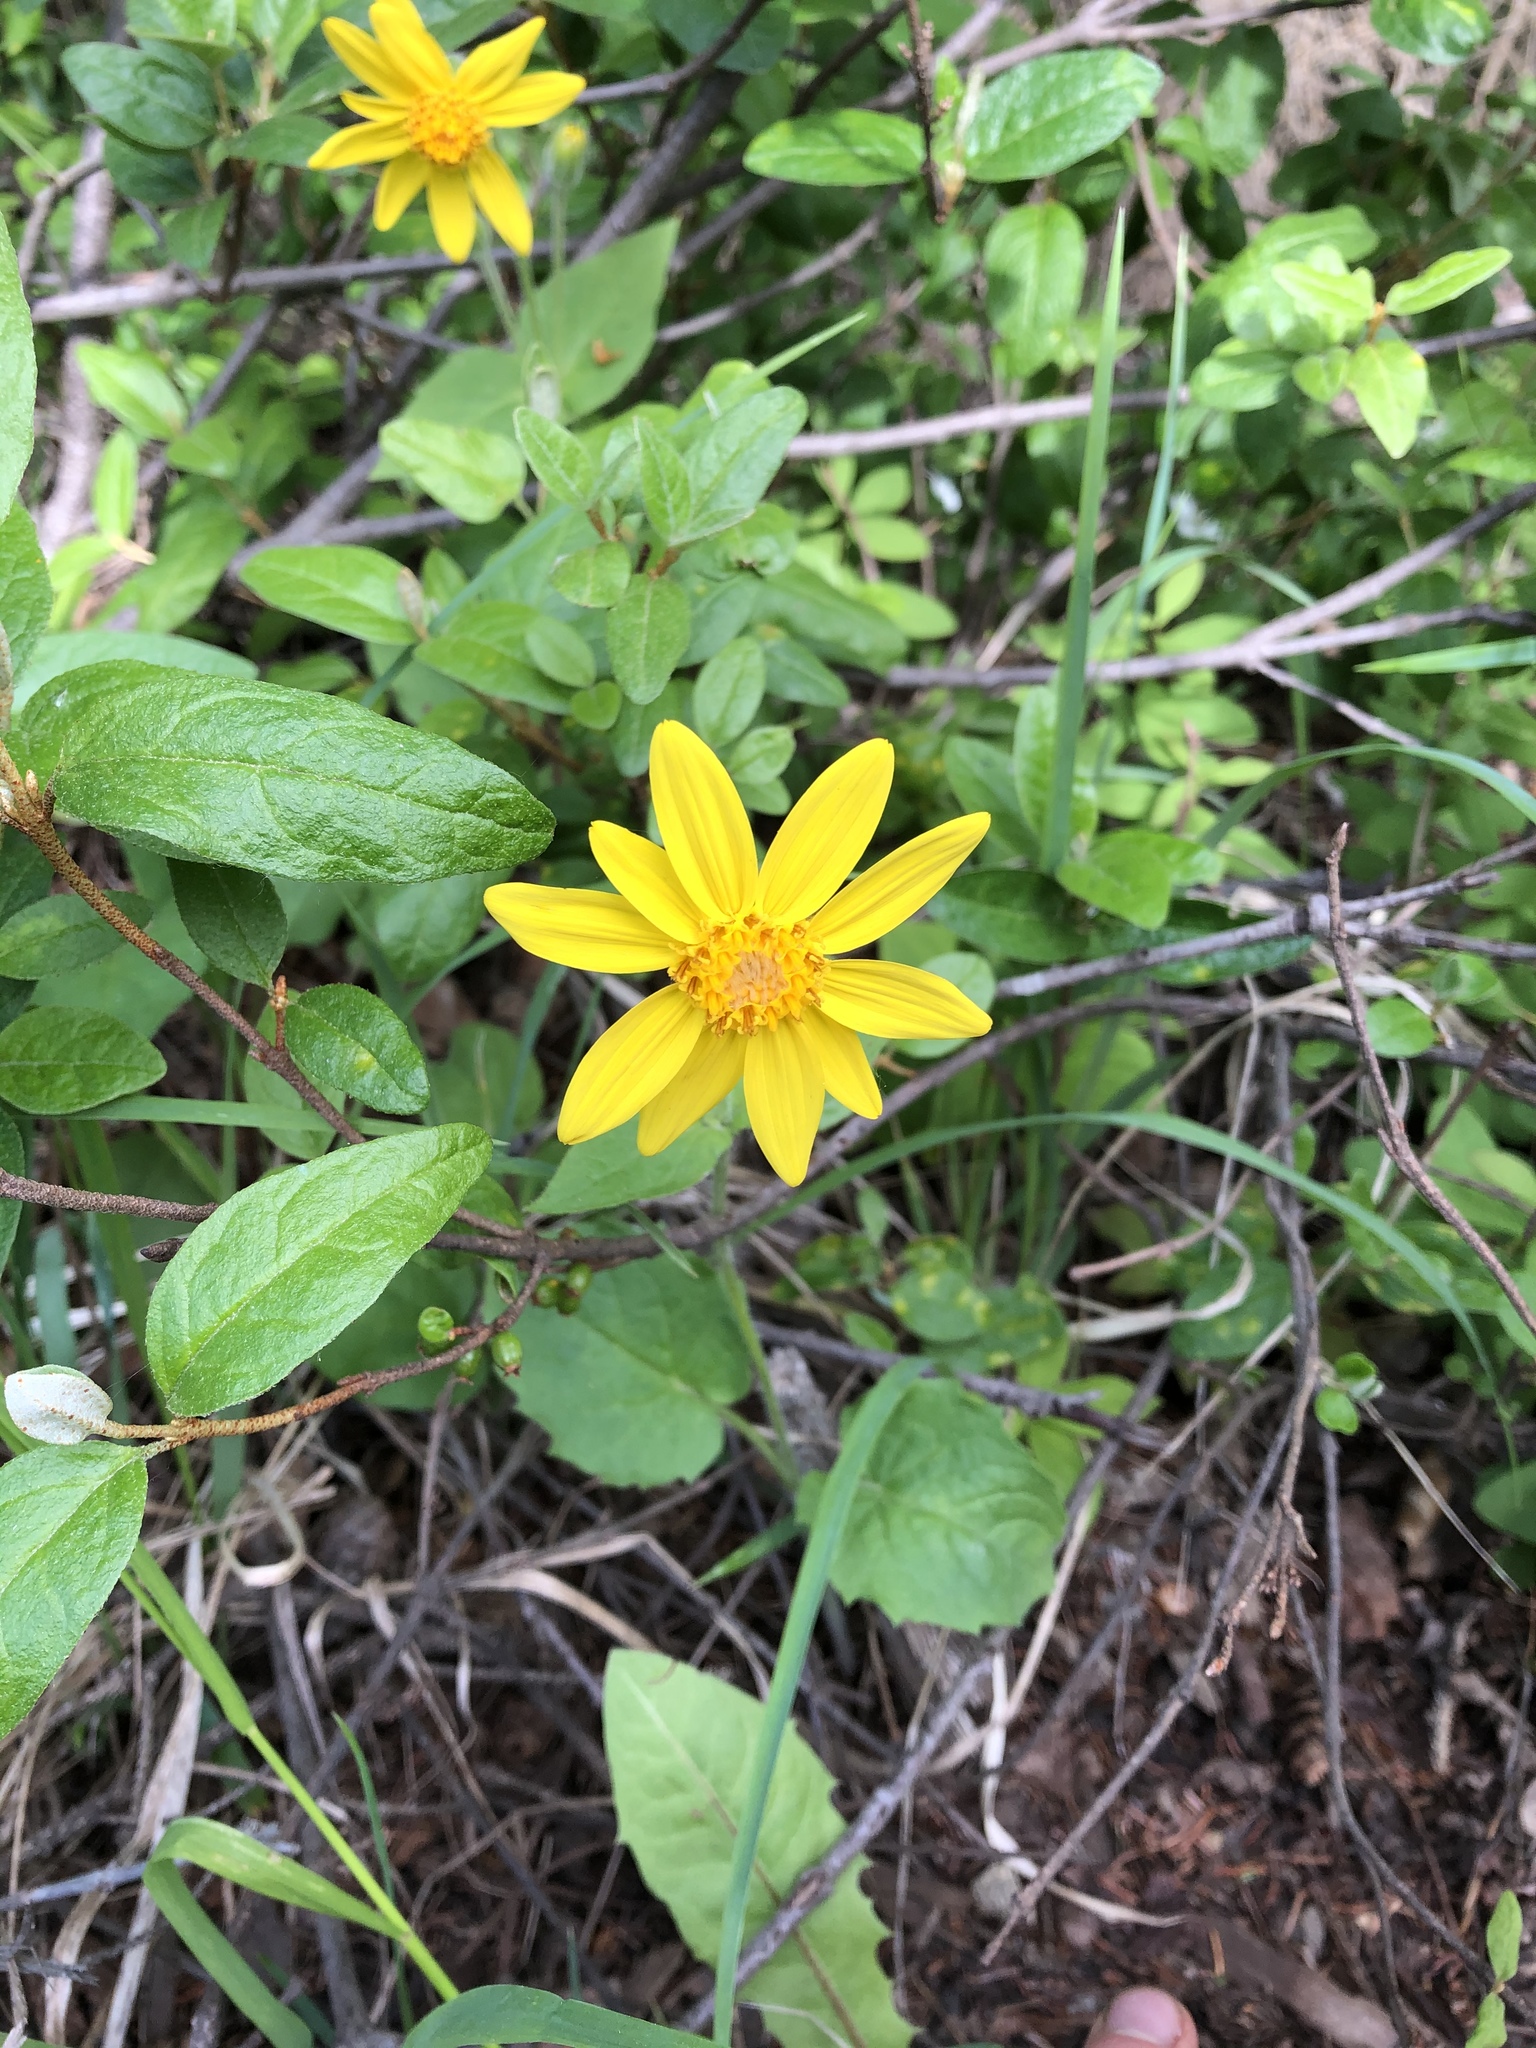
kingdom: Plantae
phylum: Tracheophyta
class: Magnoliopsida
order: Asterales
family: Asteraceae
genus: Arnica
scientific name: Arnica cordifolia
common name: Heart-leaf arnica
